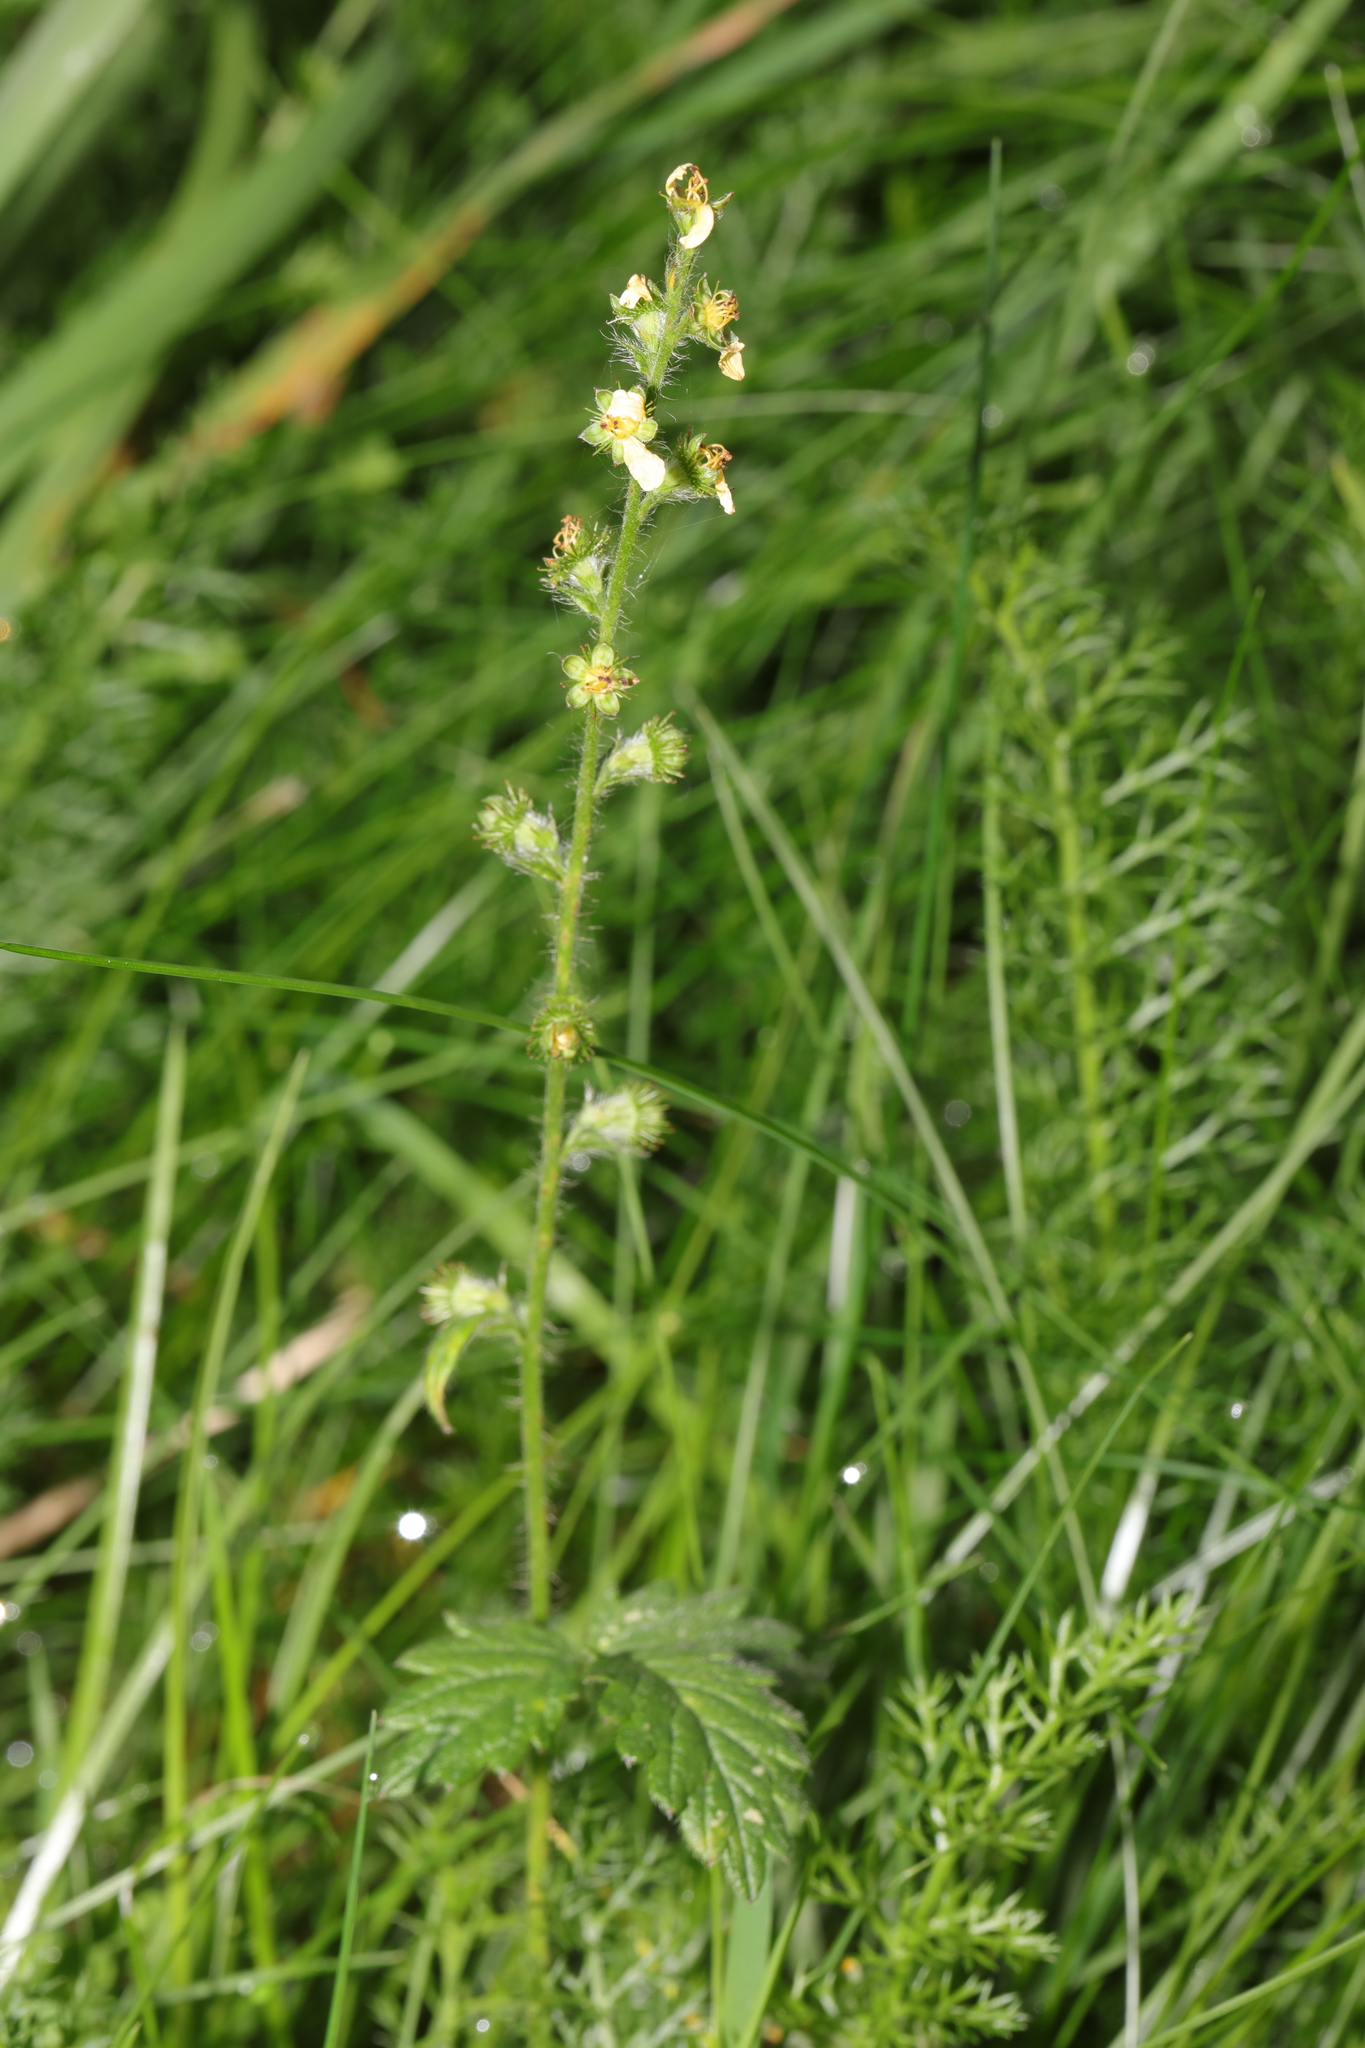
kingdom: Plantae
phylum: Tracheophyta
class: Magnoliopsida
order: Rosales
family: Rosaceae
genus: Agrimonia
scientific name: Agrimonia eupatoria
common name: Agrimony
